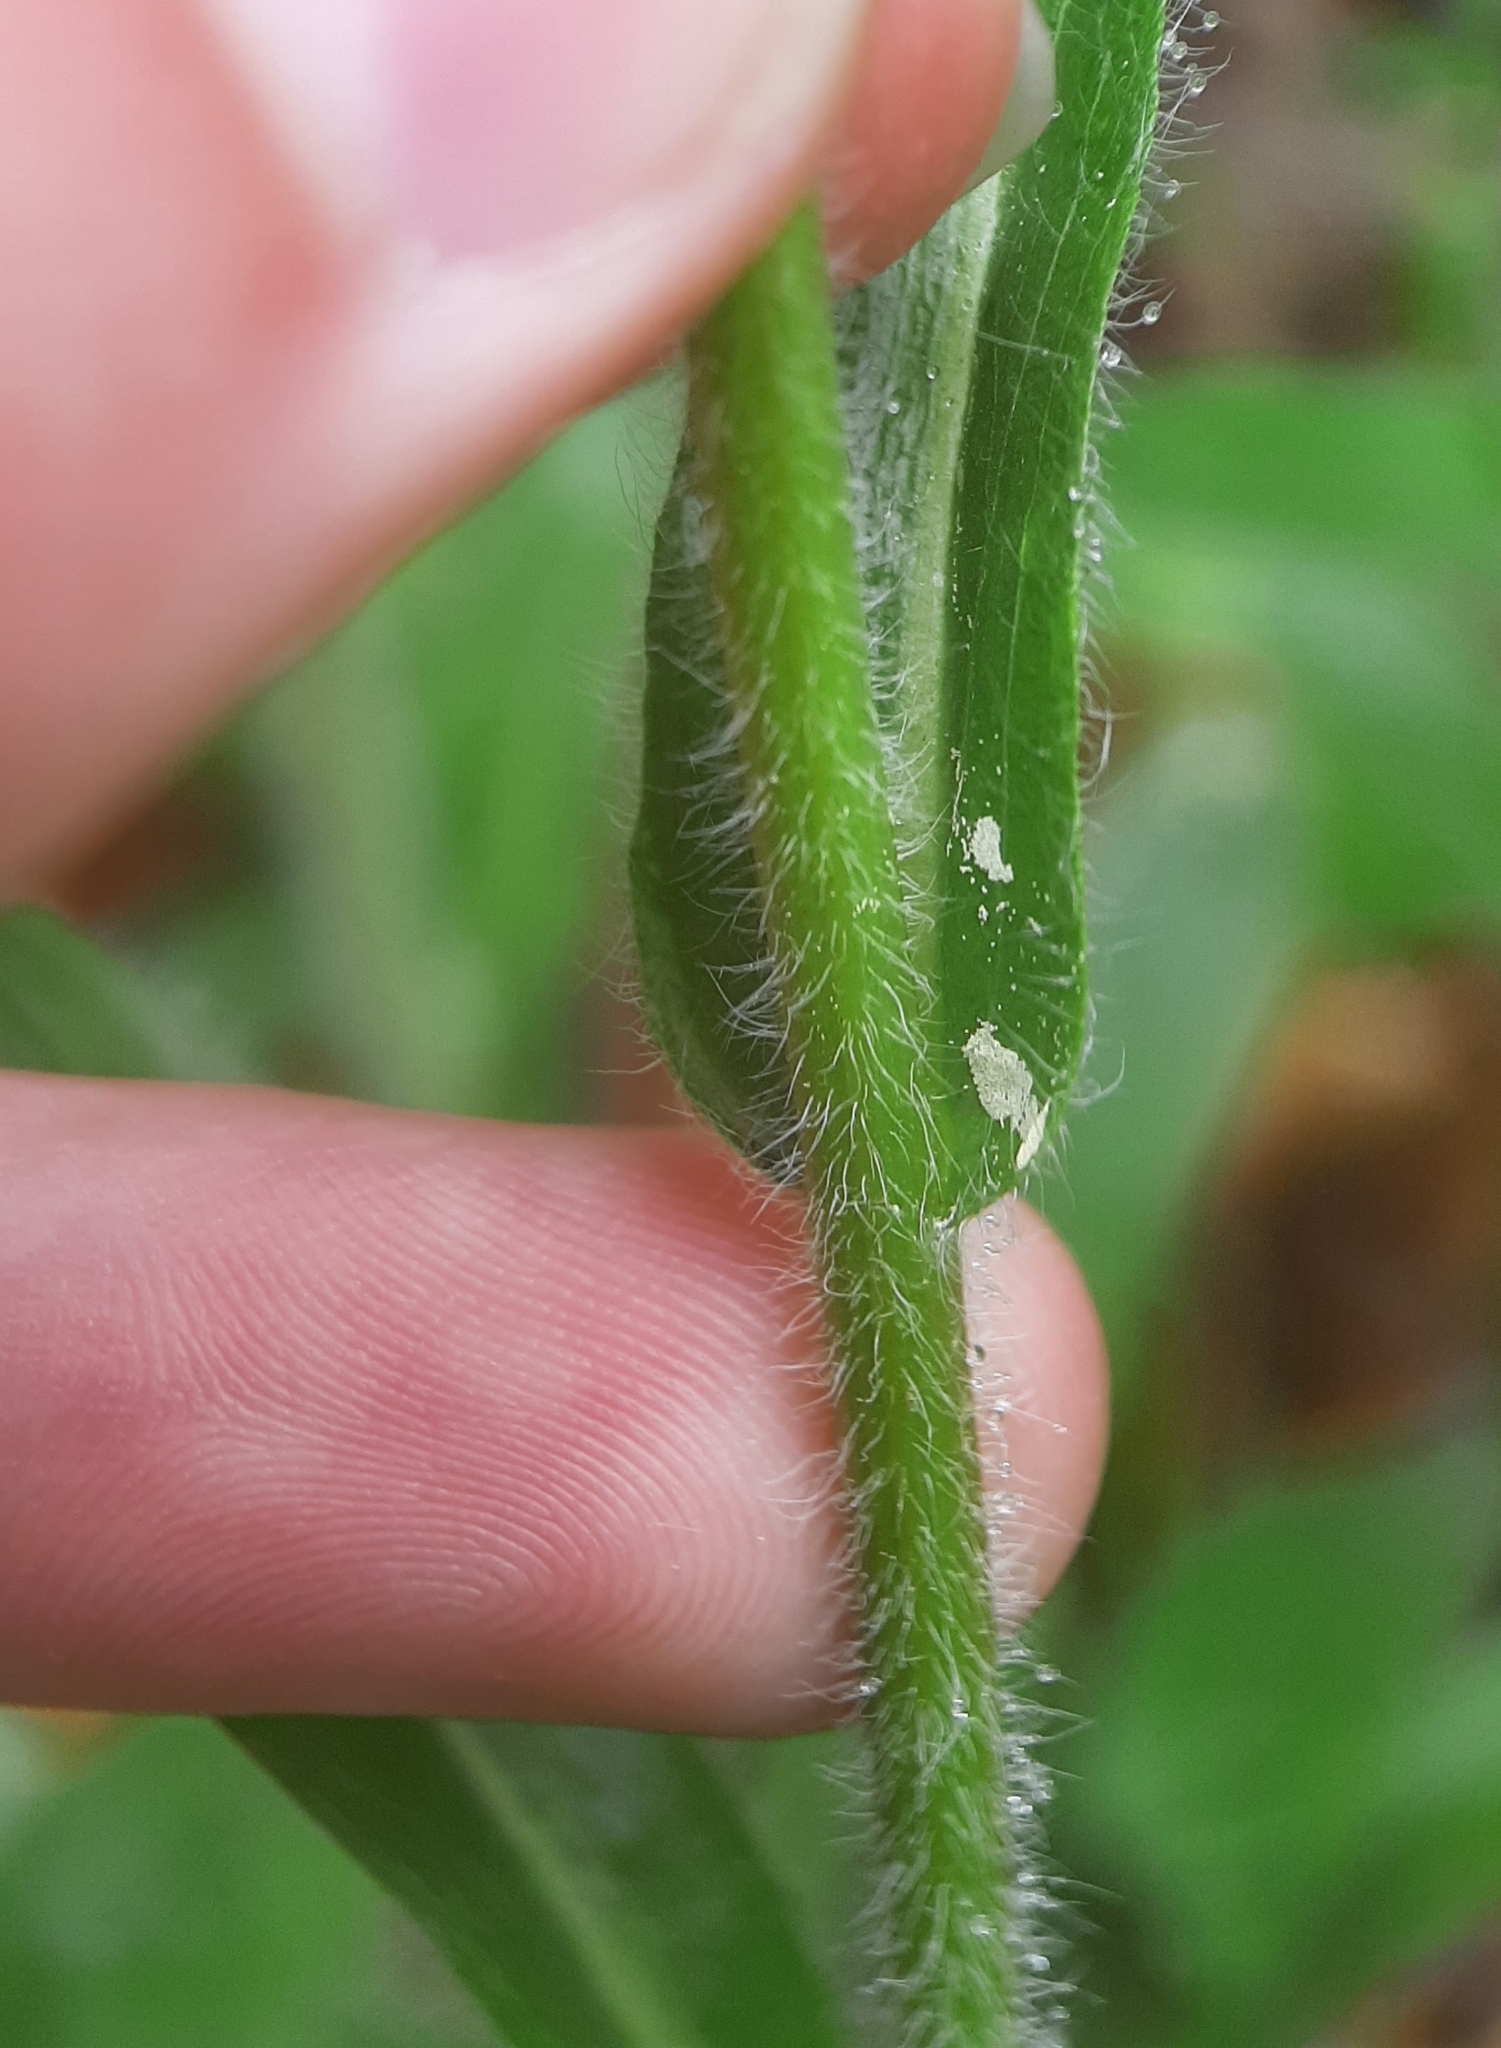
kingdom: Plantae
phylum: Tracheophyta
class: Magnoliopsida
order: Asterales
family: Asteraceae
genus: Erigeron
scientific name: Erigeron pulchellus
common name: Hairy fleabane
